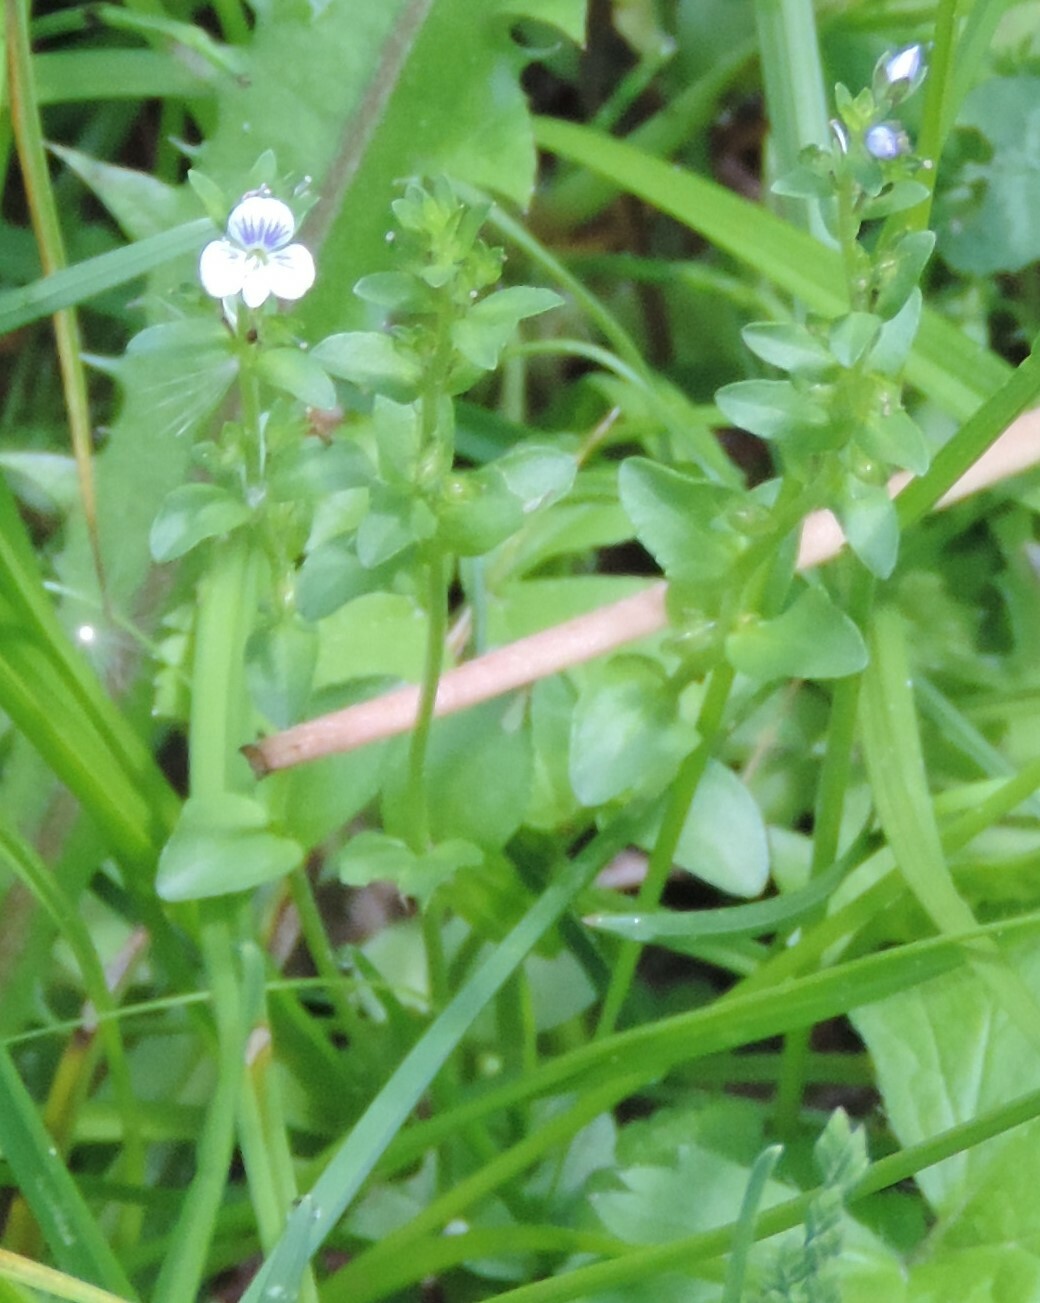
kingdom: Plantae
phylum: Tracheophyta
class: Magnoliopsida
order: Lamiales
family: Plantaginaceae
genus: Veronica
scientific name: Veronica serpyllifolia
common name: Thyme-leaved speedwell
